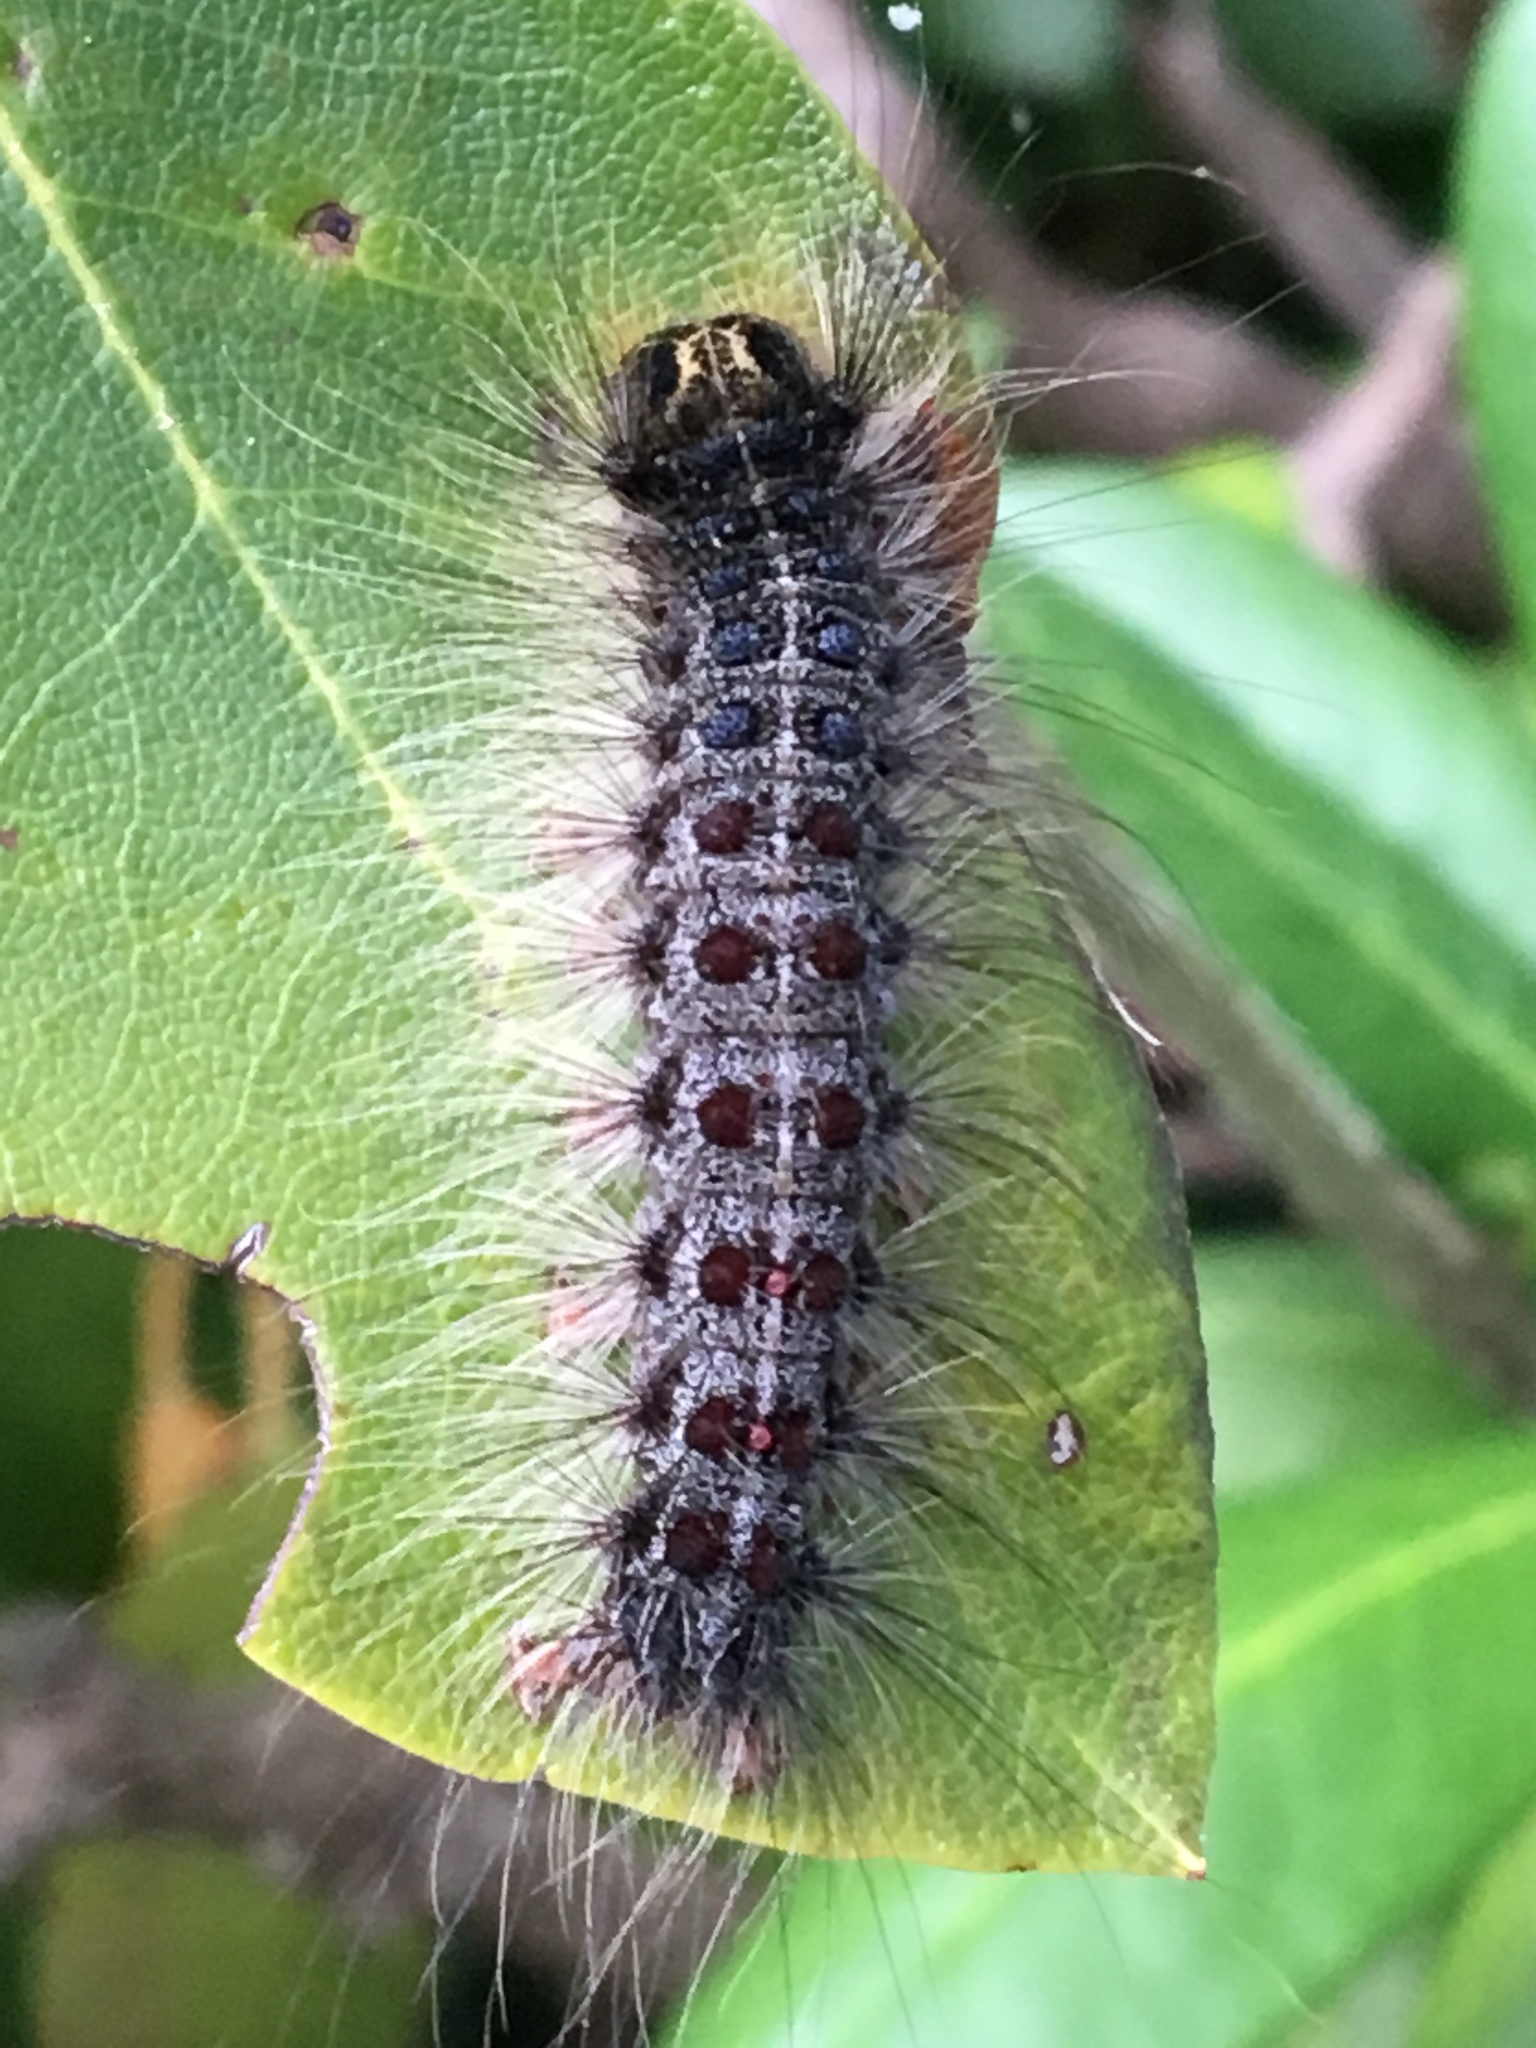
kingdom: Animalia
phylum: Arthropoda
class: Insecta
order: Lepidoptera
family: Erebidae
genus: Lymantria
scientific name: Lymantria dispar
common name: Gypsy moth
